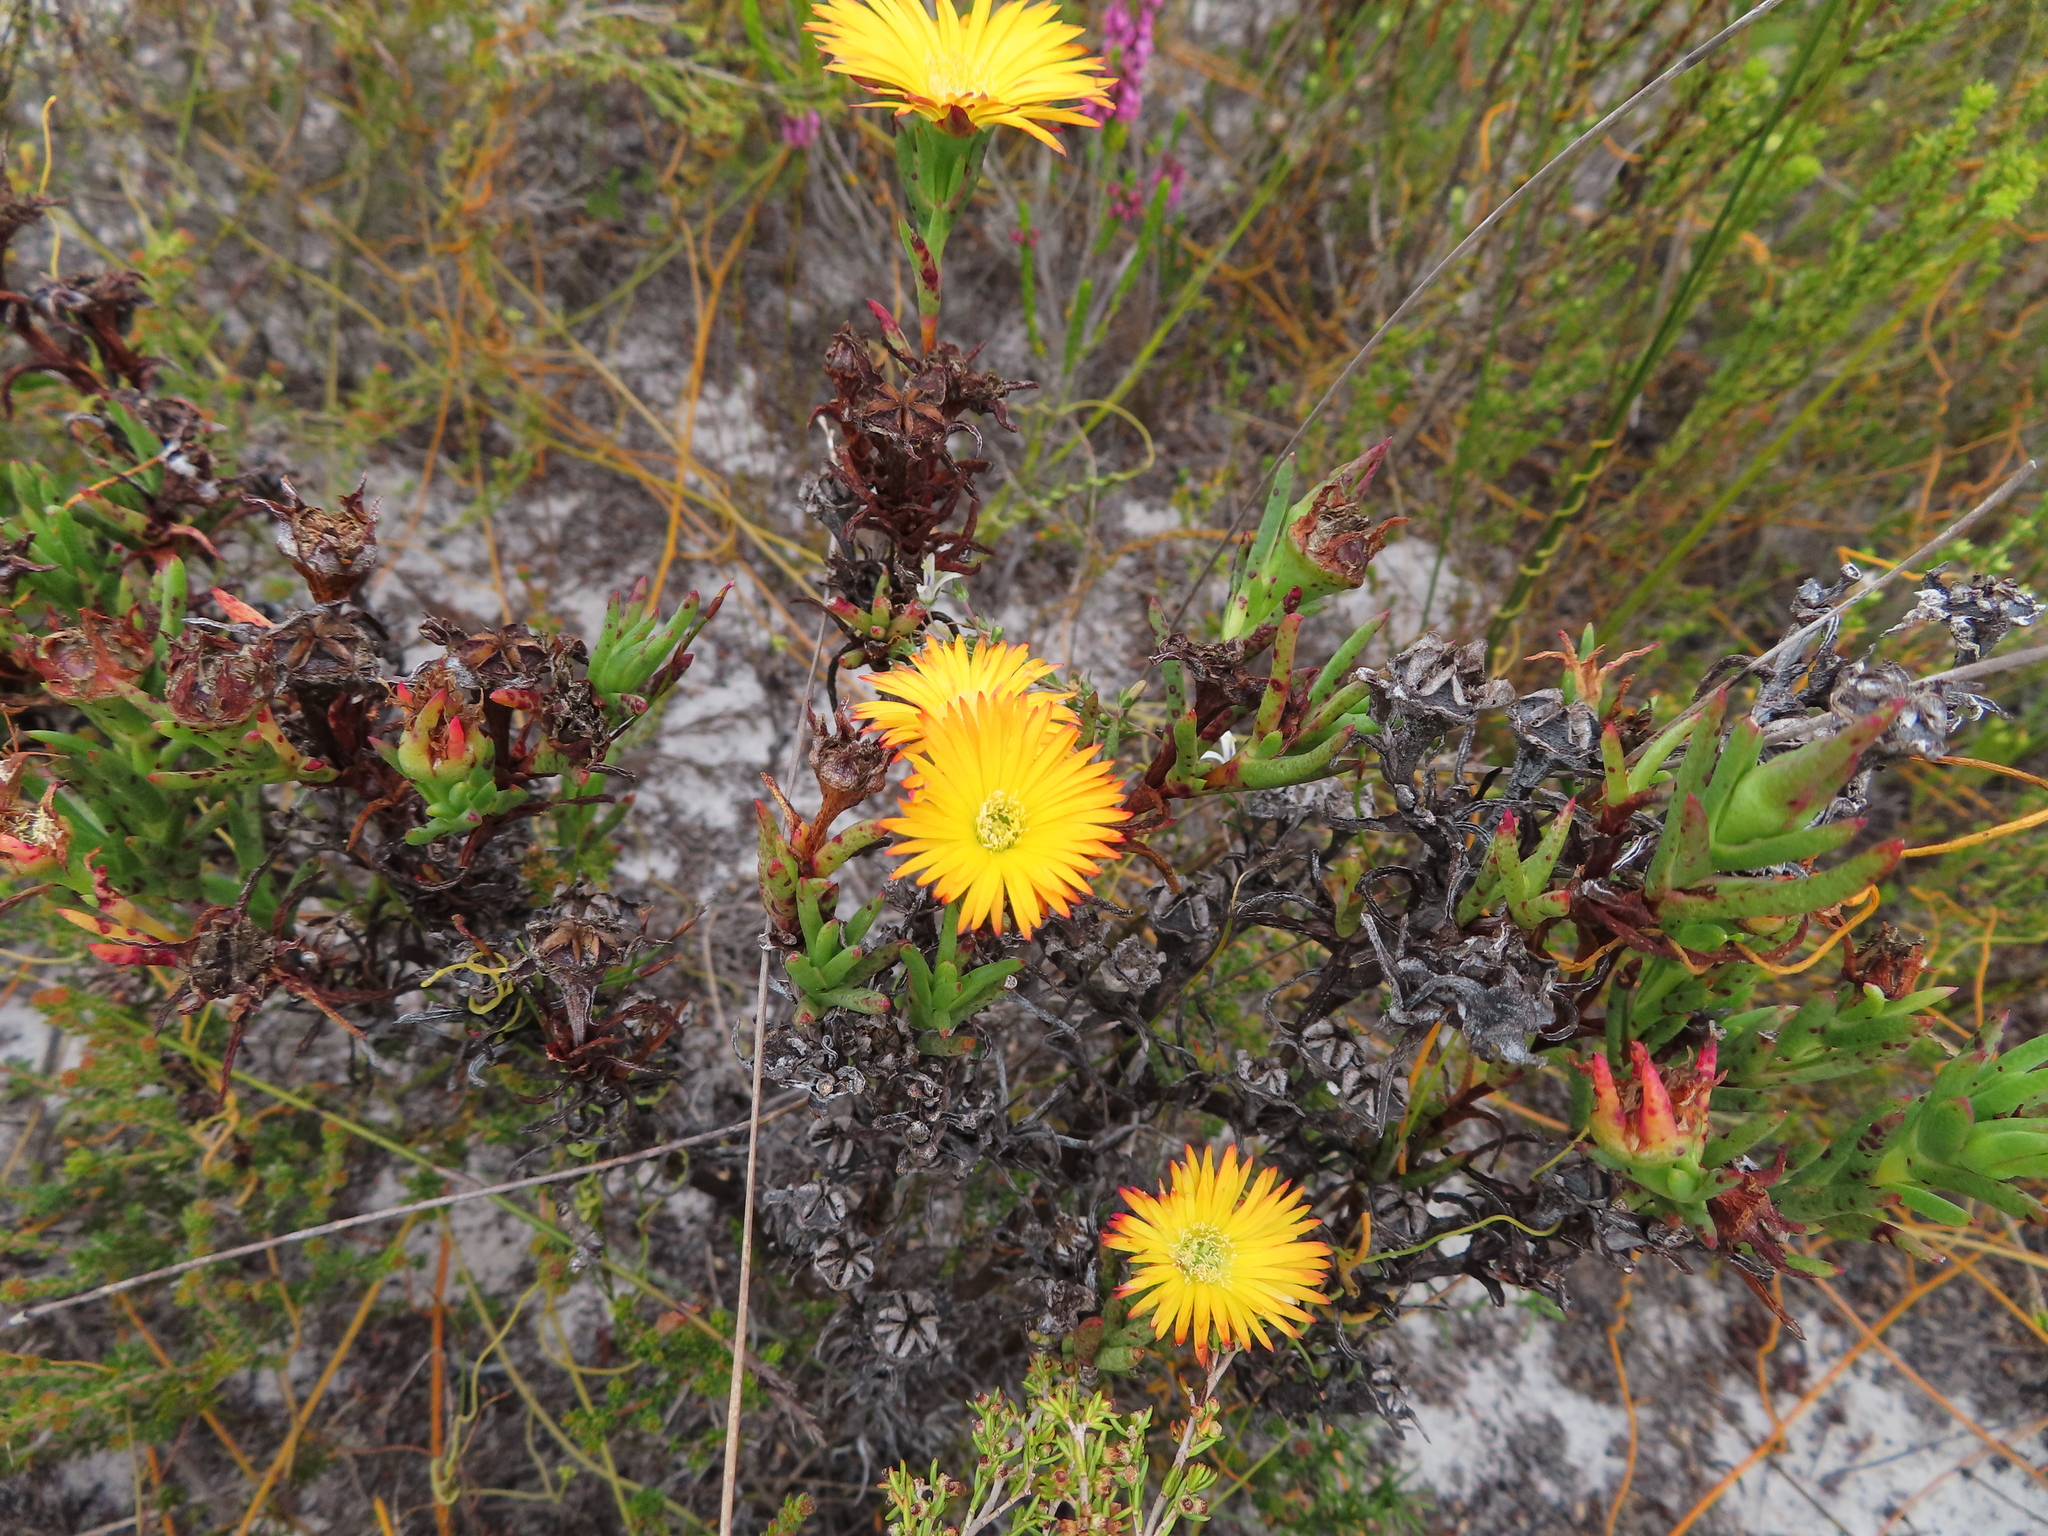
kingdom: Plantae
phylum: Tracheophyta
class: Magnoliopsida
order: Caryophyllales
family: Aizoaceae
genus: Lampranthus
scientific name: Lampranthus bicolor
